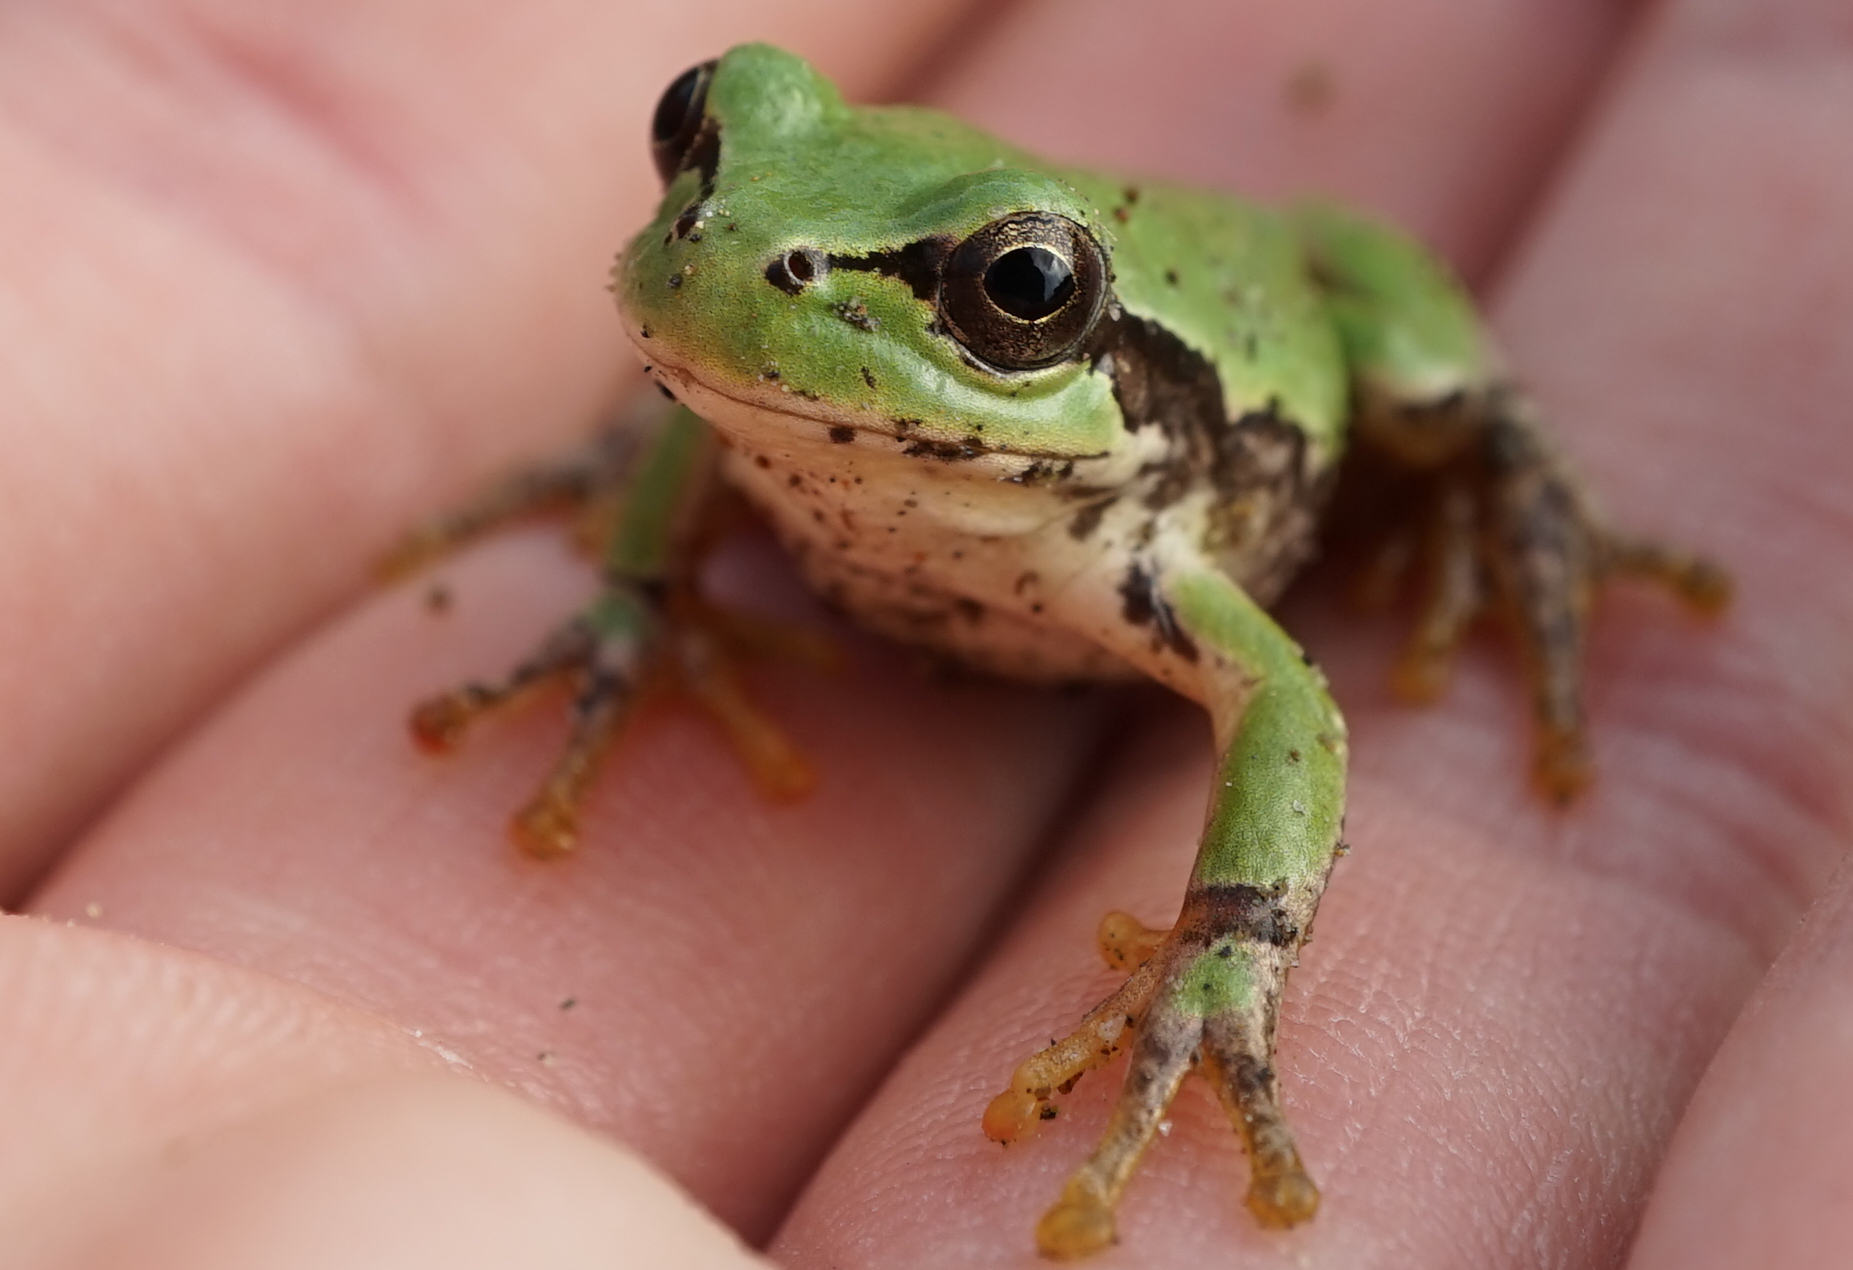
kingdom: Animalia
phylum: Chordata
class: Amphibia
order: Anura
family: Hylidae
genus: Dryophytes
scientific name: Dryophytes japonicus
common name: Japanese treefrog
